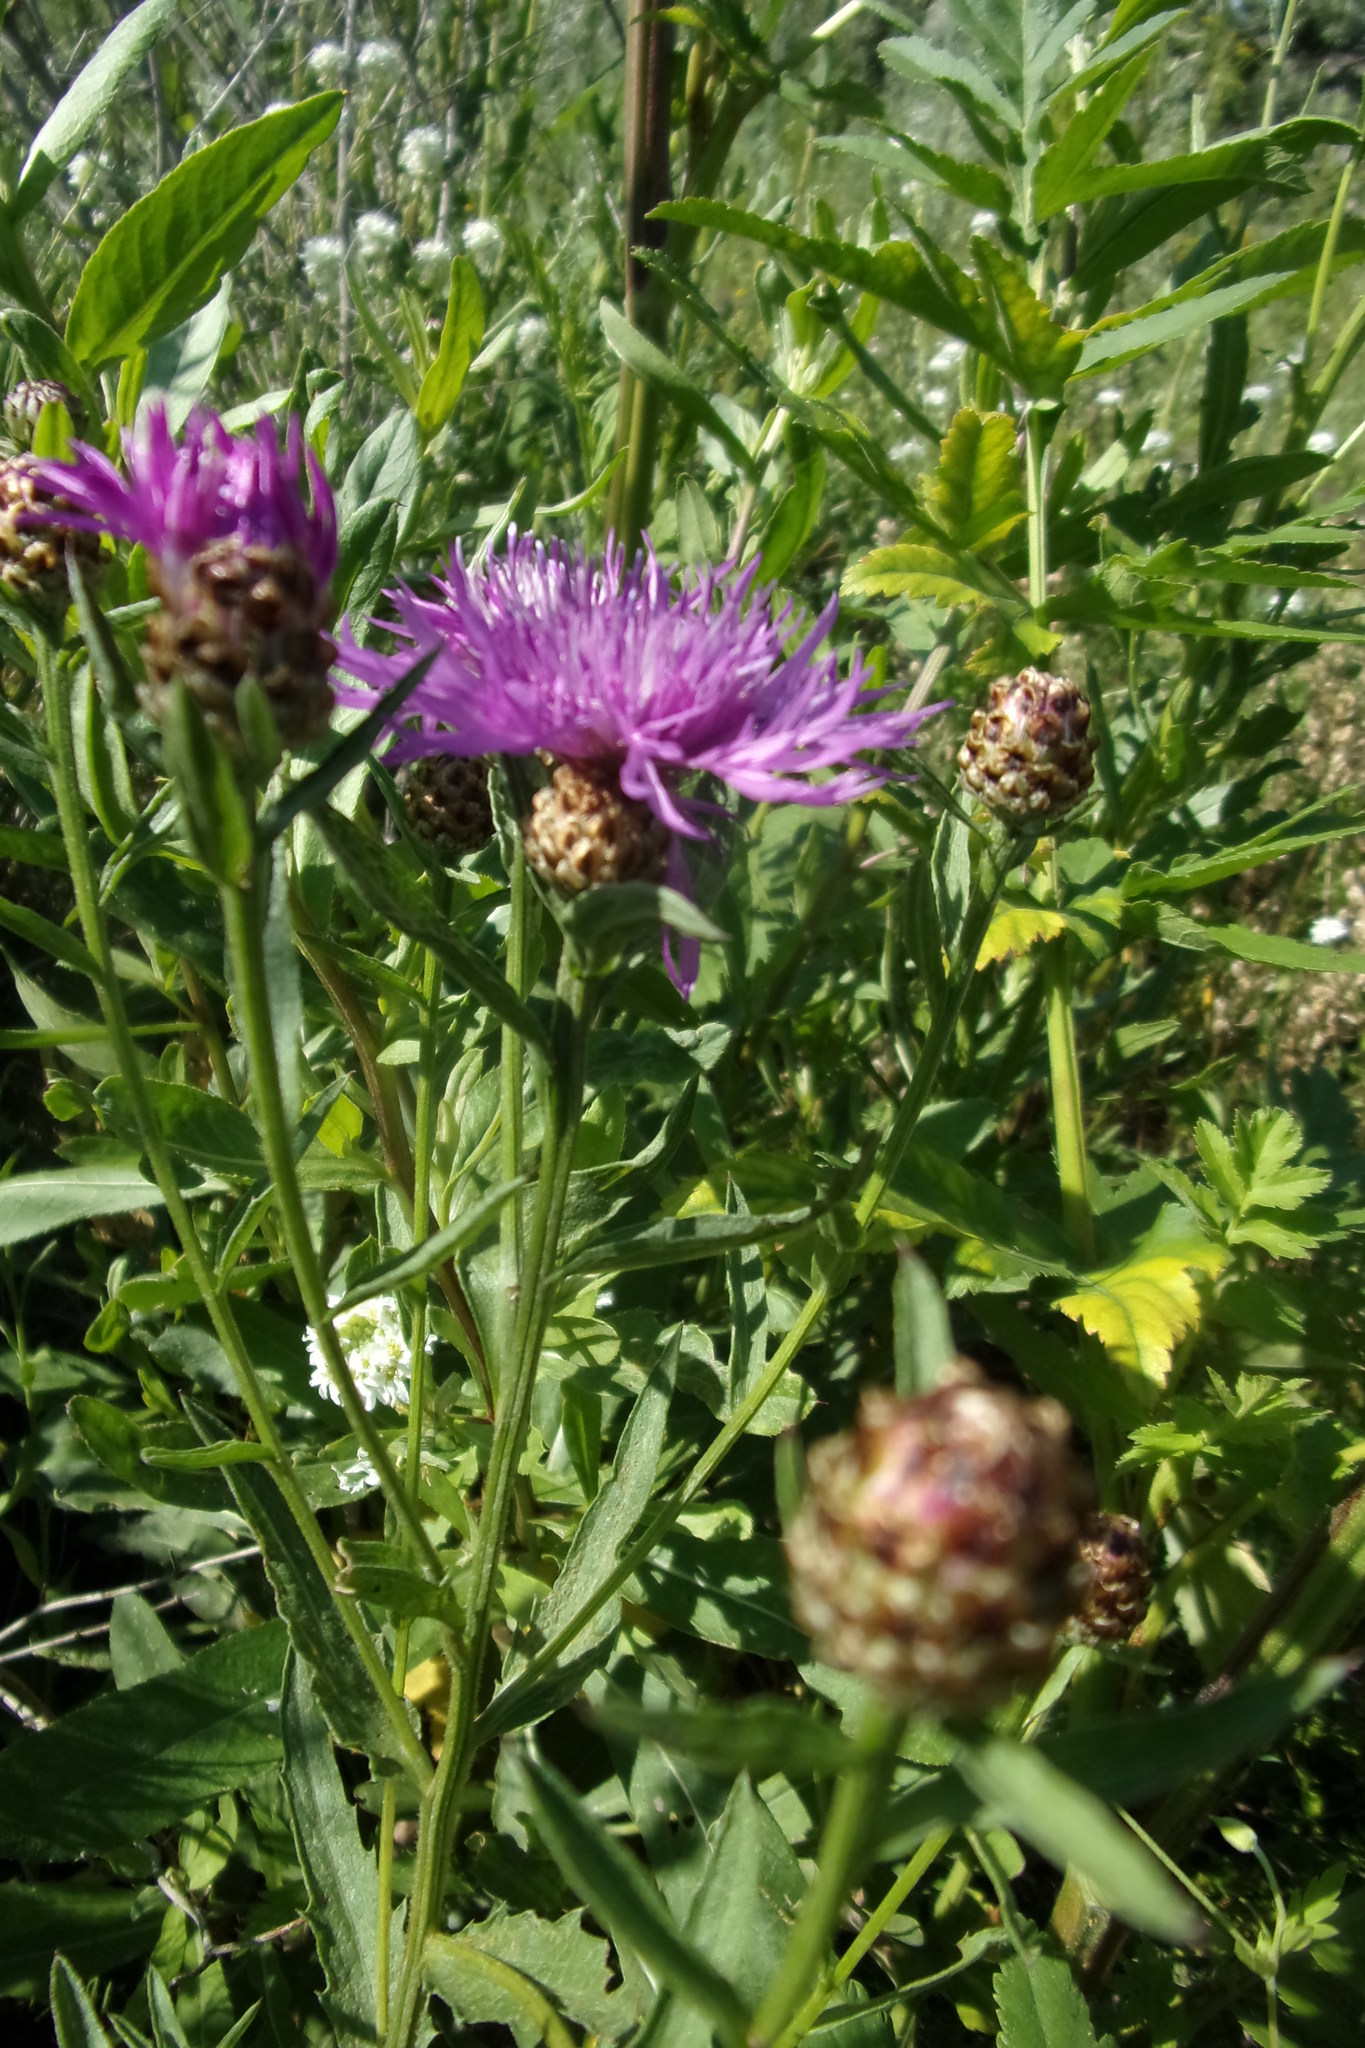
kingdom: Plantae
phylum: Tracheophyta
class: Magnoliopsida
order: Asterales
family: Asteraceae
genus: Centaurea
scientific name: Centaurea jacea
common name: Brown knapweed
